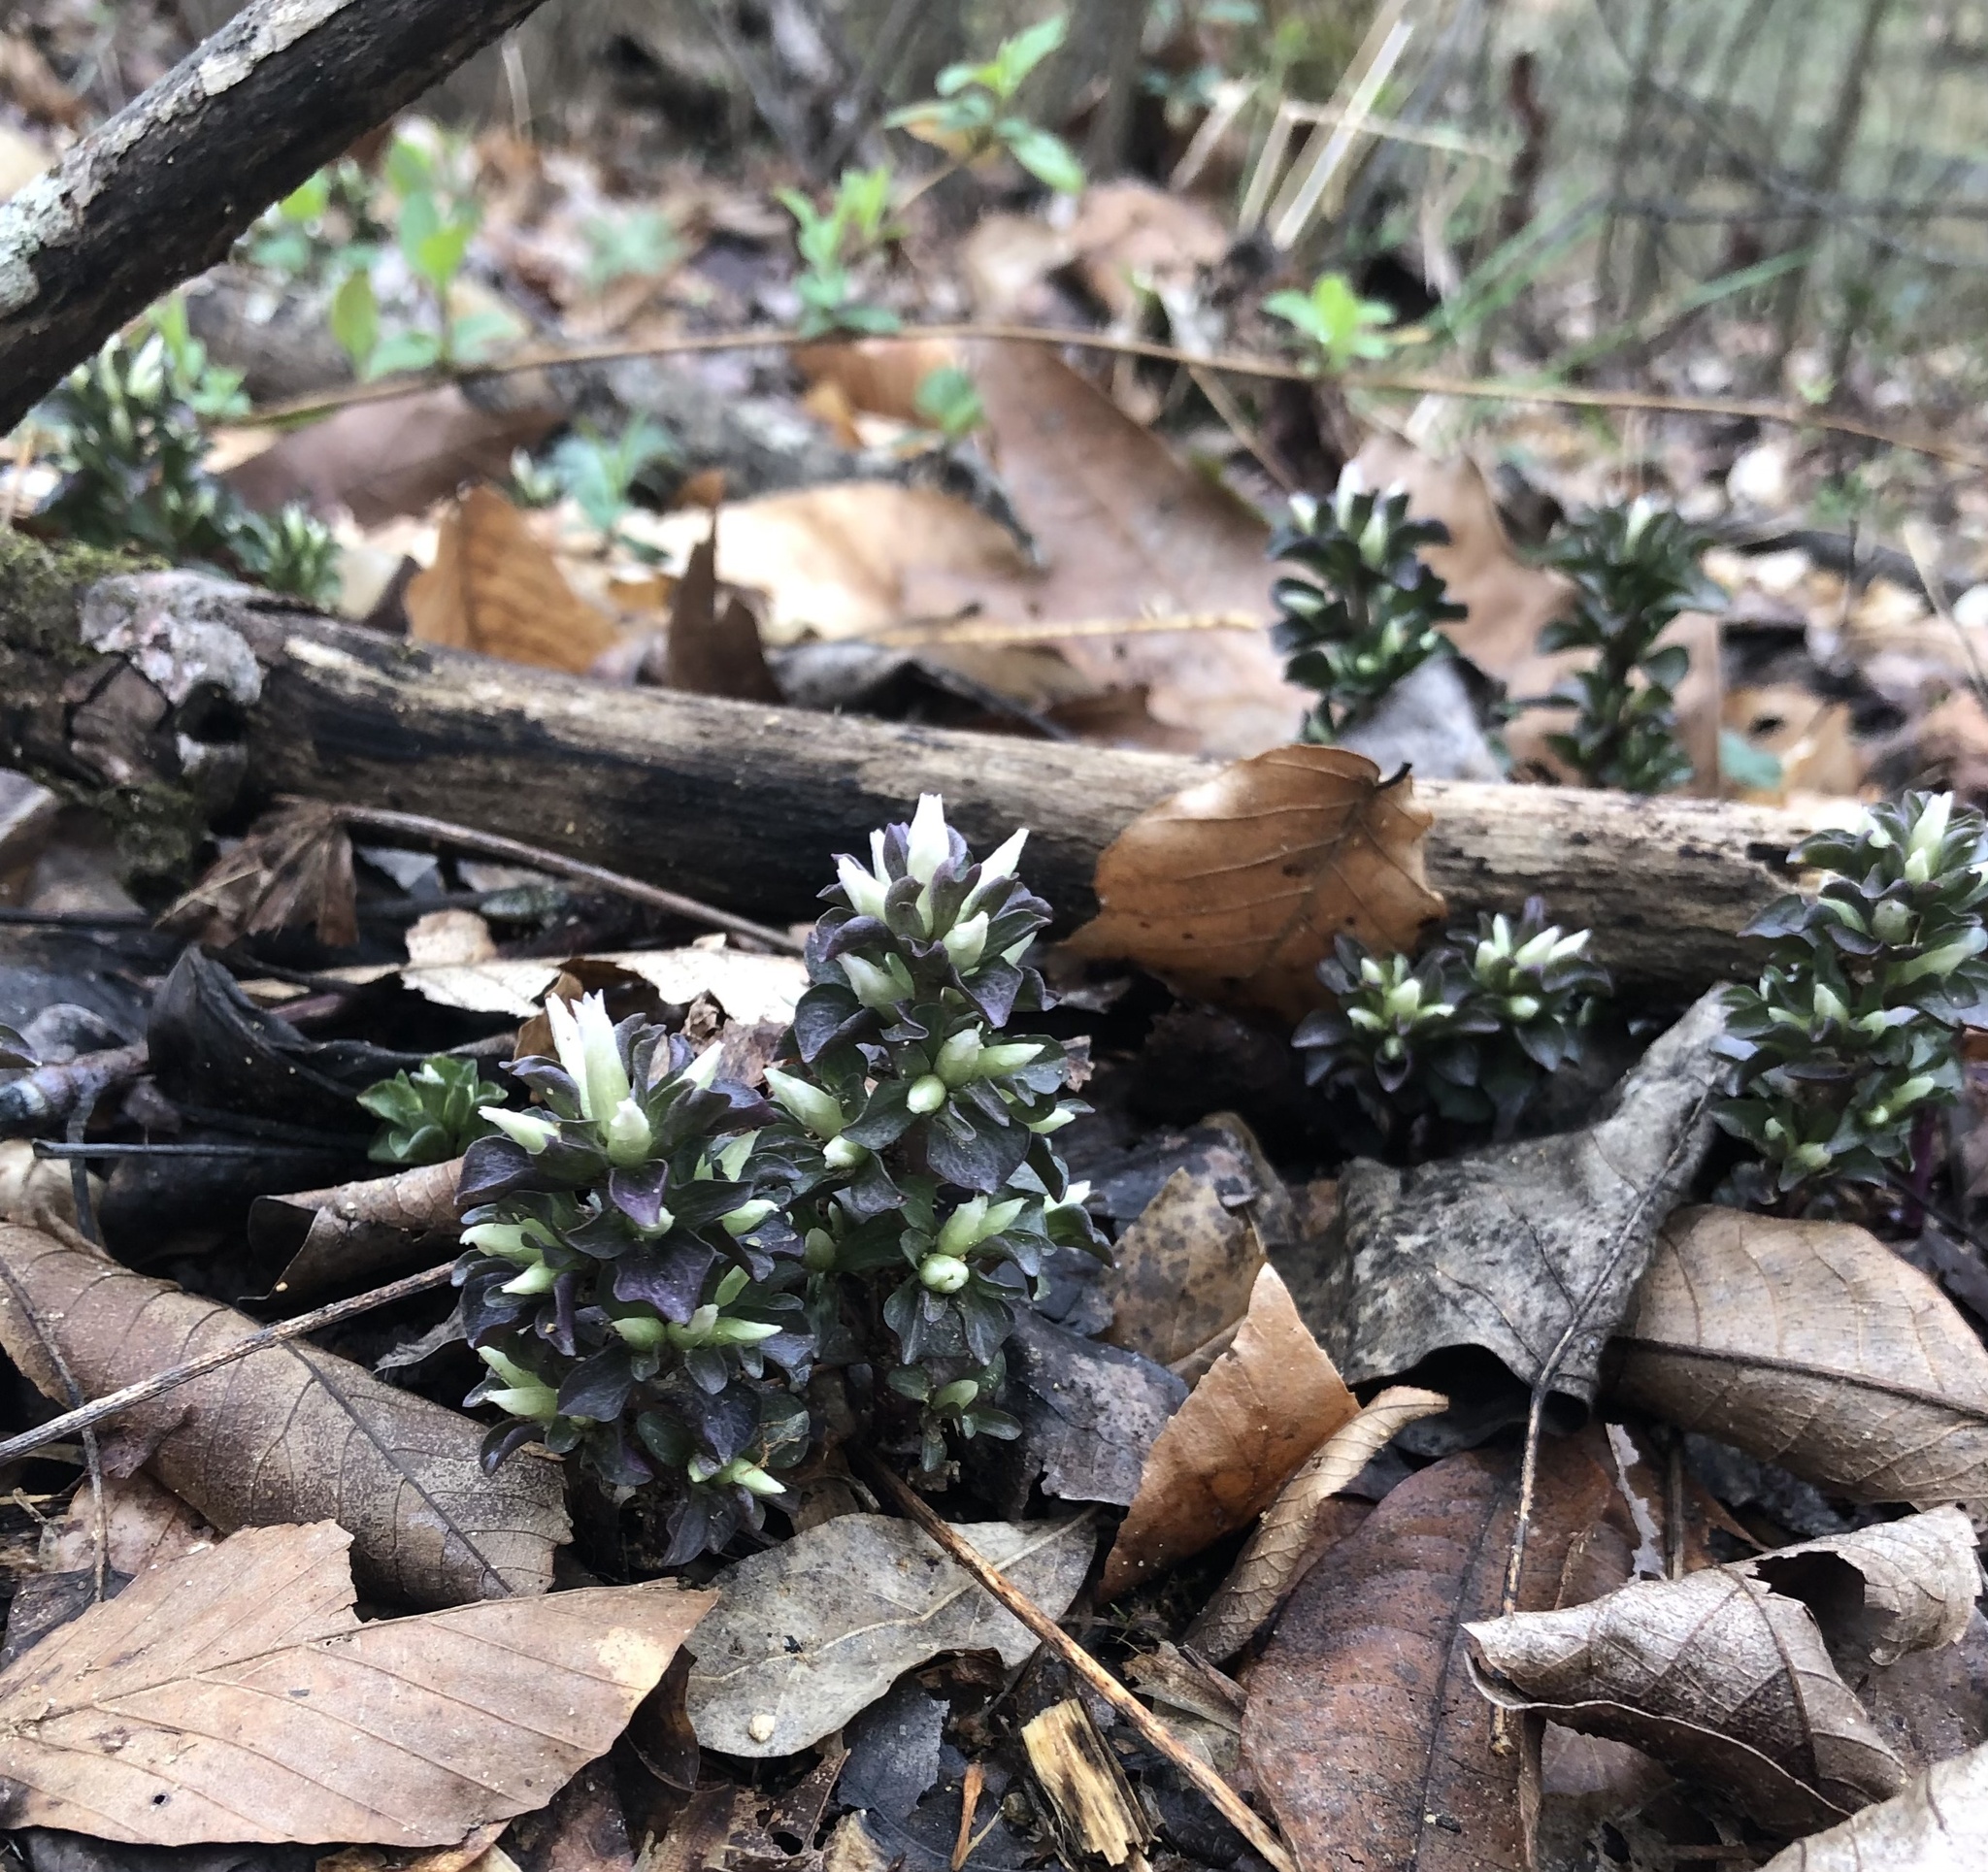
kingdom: Plantae
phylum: Tracheophyta
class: Magnoliopsida
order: Gentianales
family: Gentianaceae
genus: Obolaria
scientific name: Obolaria virginica
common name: Pennywort
